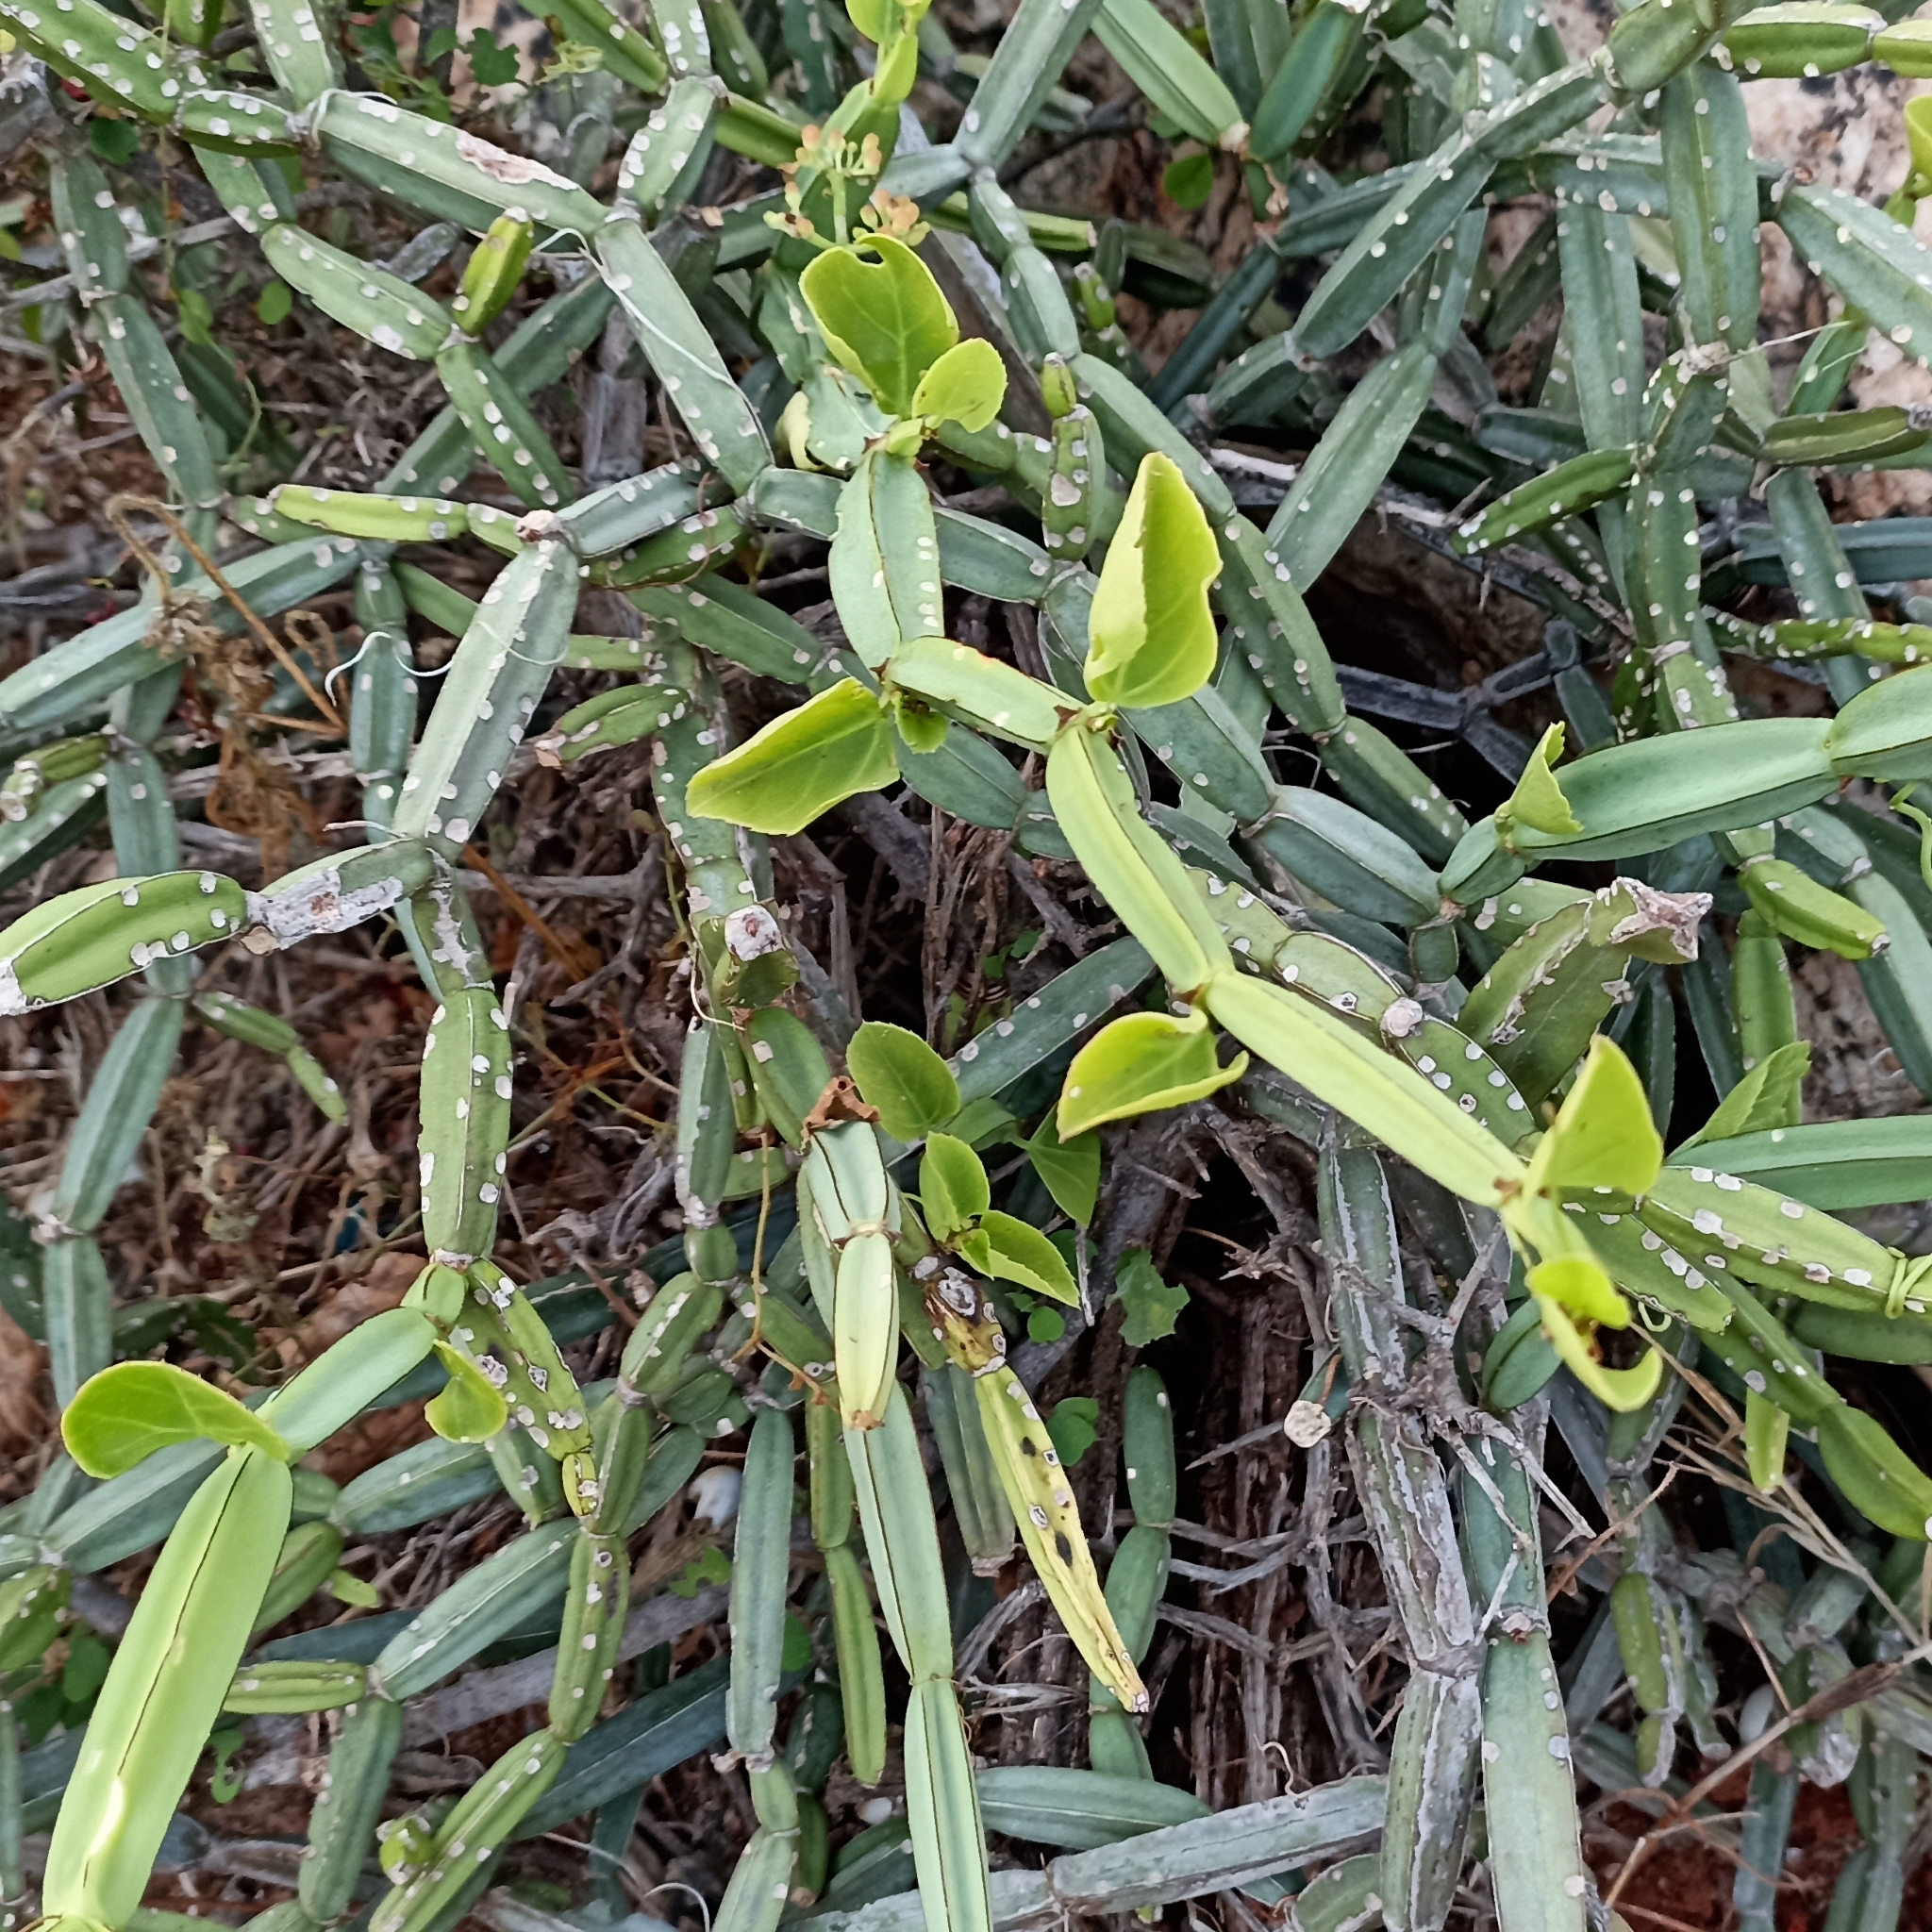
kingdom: Plantae
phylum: Tracheophyta
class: Magnoliopsida
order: Vitales
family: Vitaceae
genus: Cissus
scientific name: Cissus quadrangularis
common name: Veldt-grape
